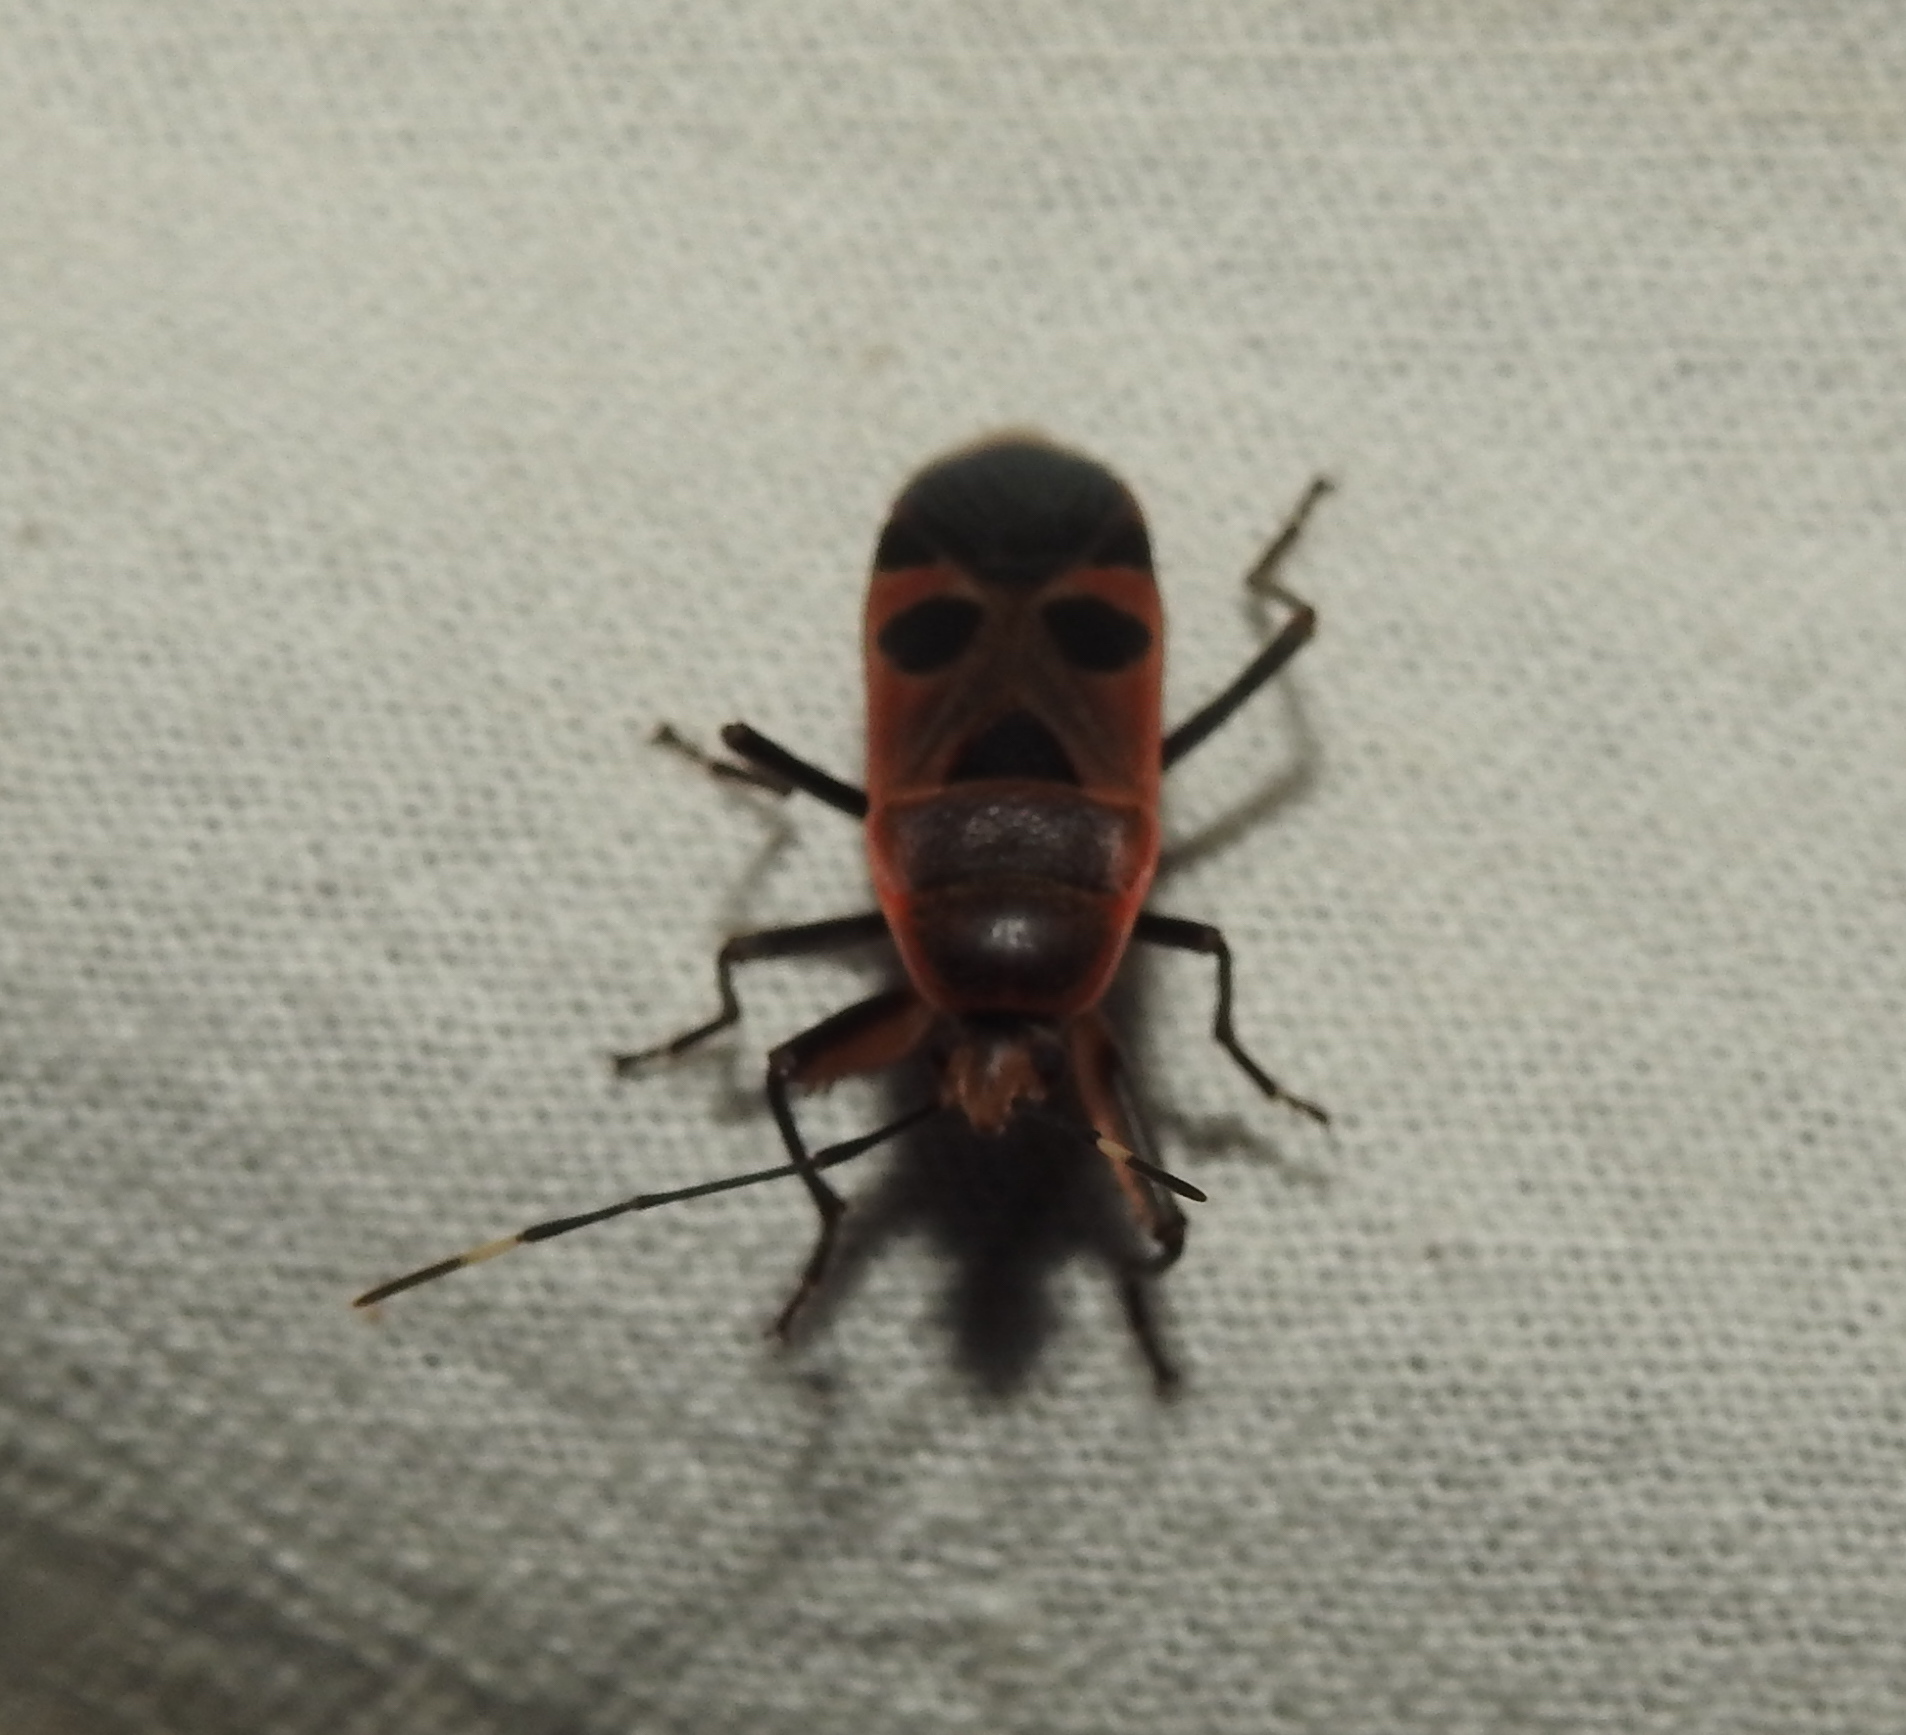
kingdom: Animalia
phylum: Arthropoda
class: Insecta
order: Hemiptera
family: Largidae
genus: Physopelta
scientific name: Physopelta gutta
